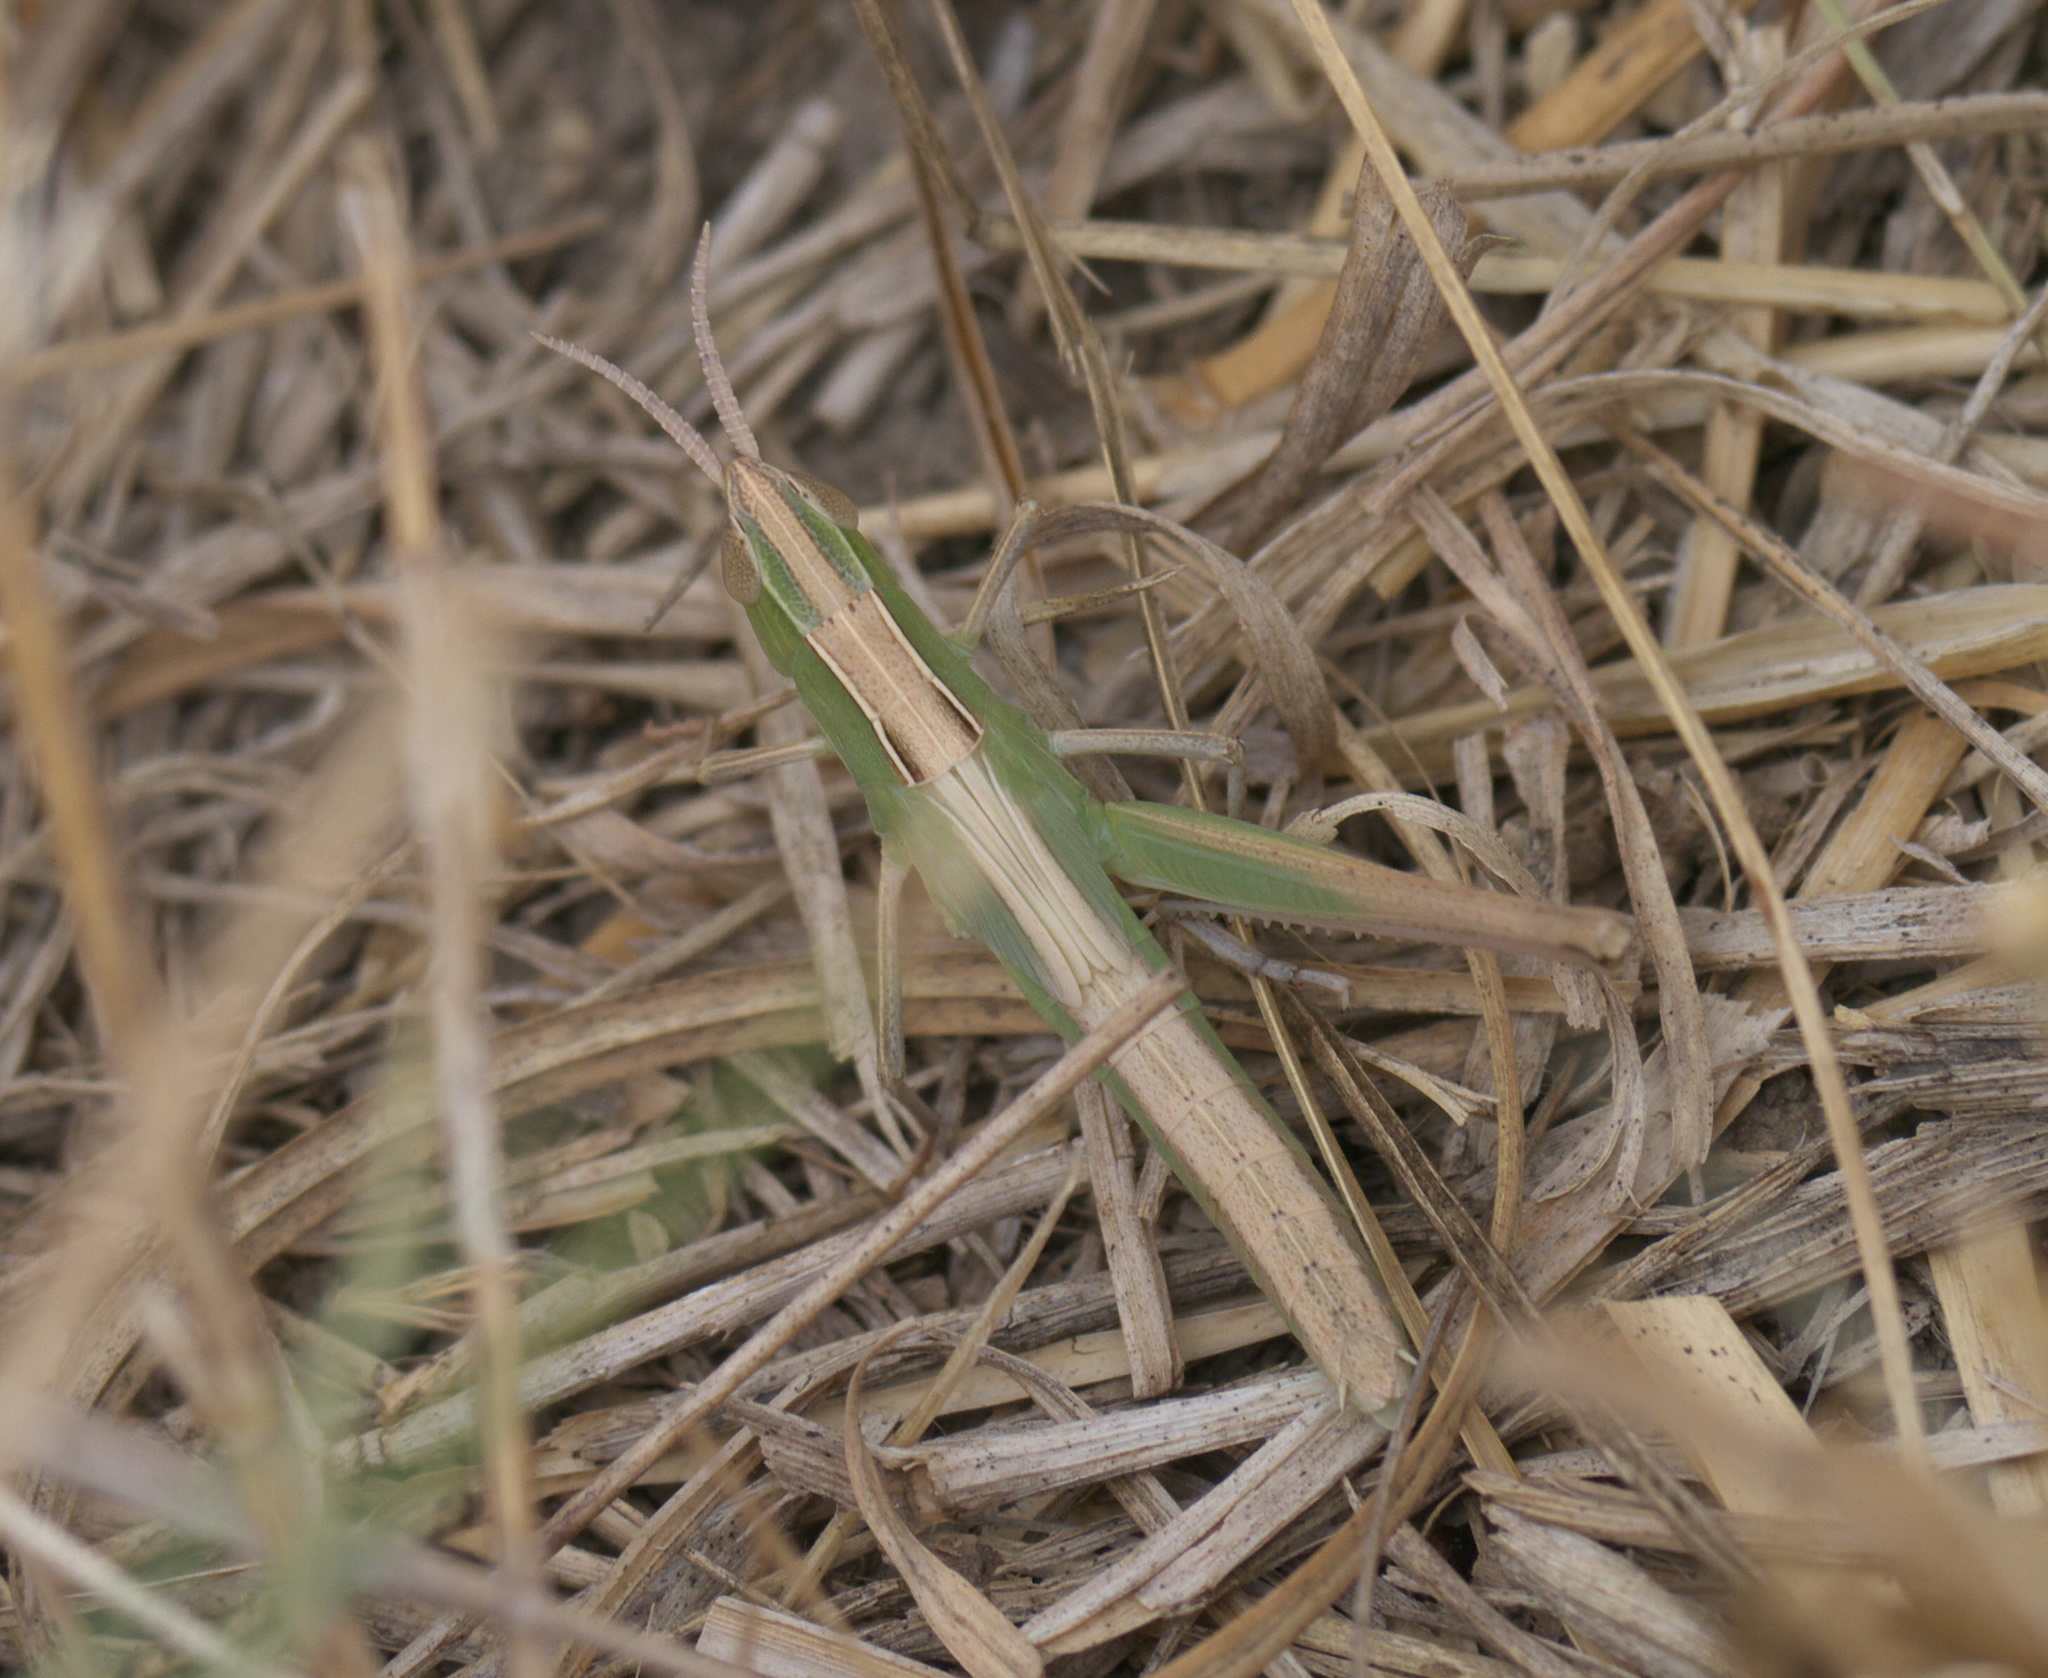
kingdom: Animalia
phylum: Arthropoda
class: Insecta
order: Orthoptera
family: Acrididae
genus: Syrbula
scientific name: Syrbula admirabilis
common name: Handsome grasshopper
